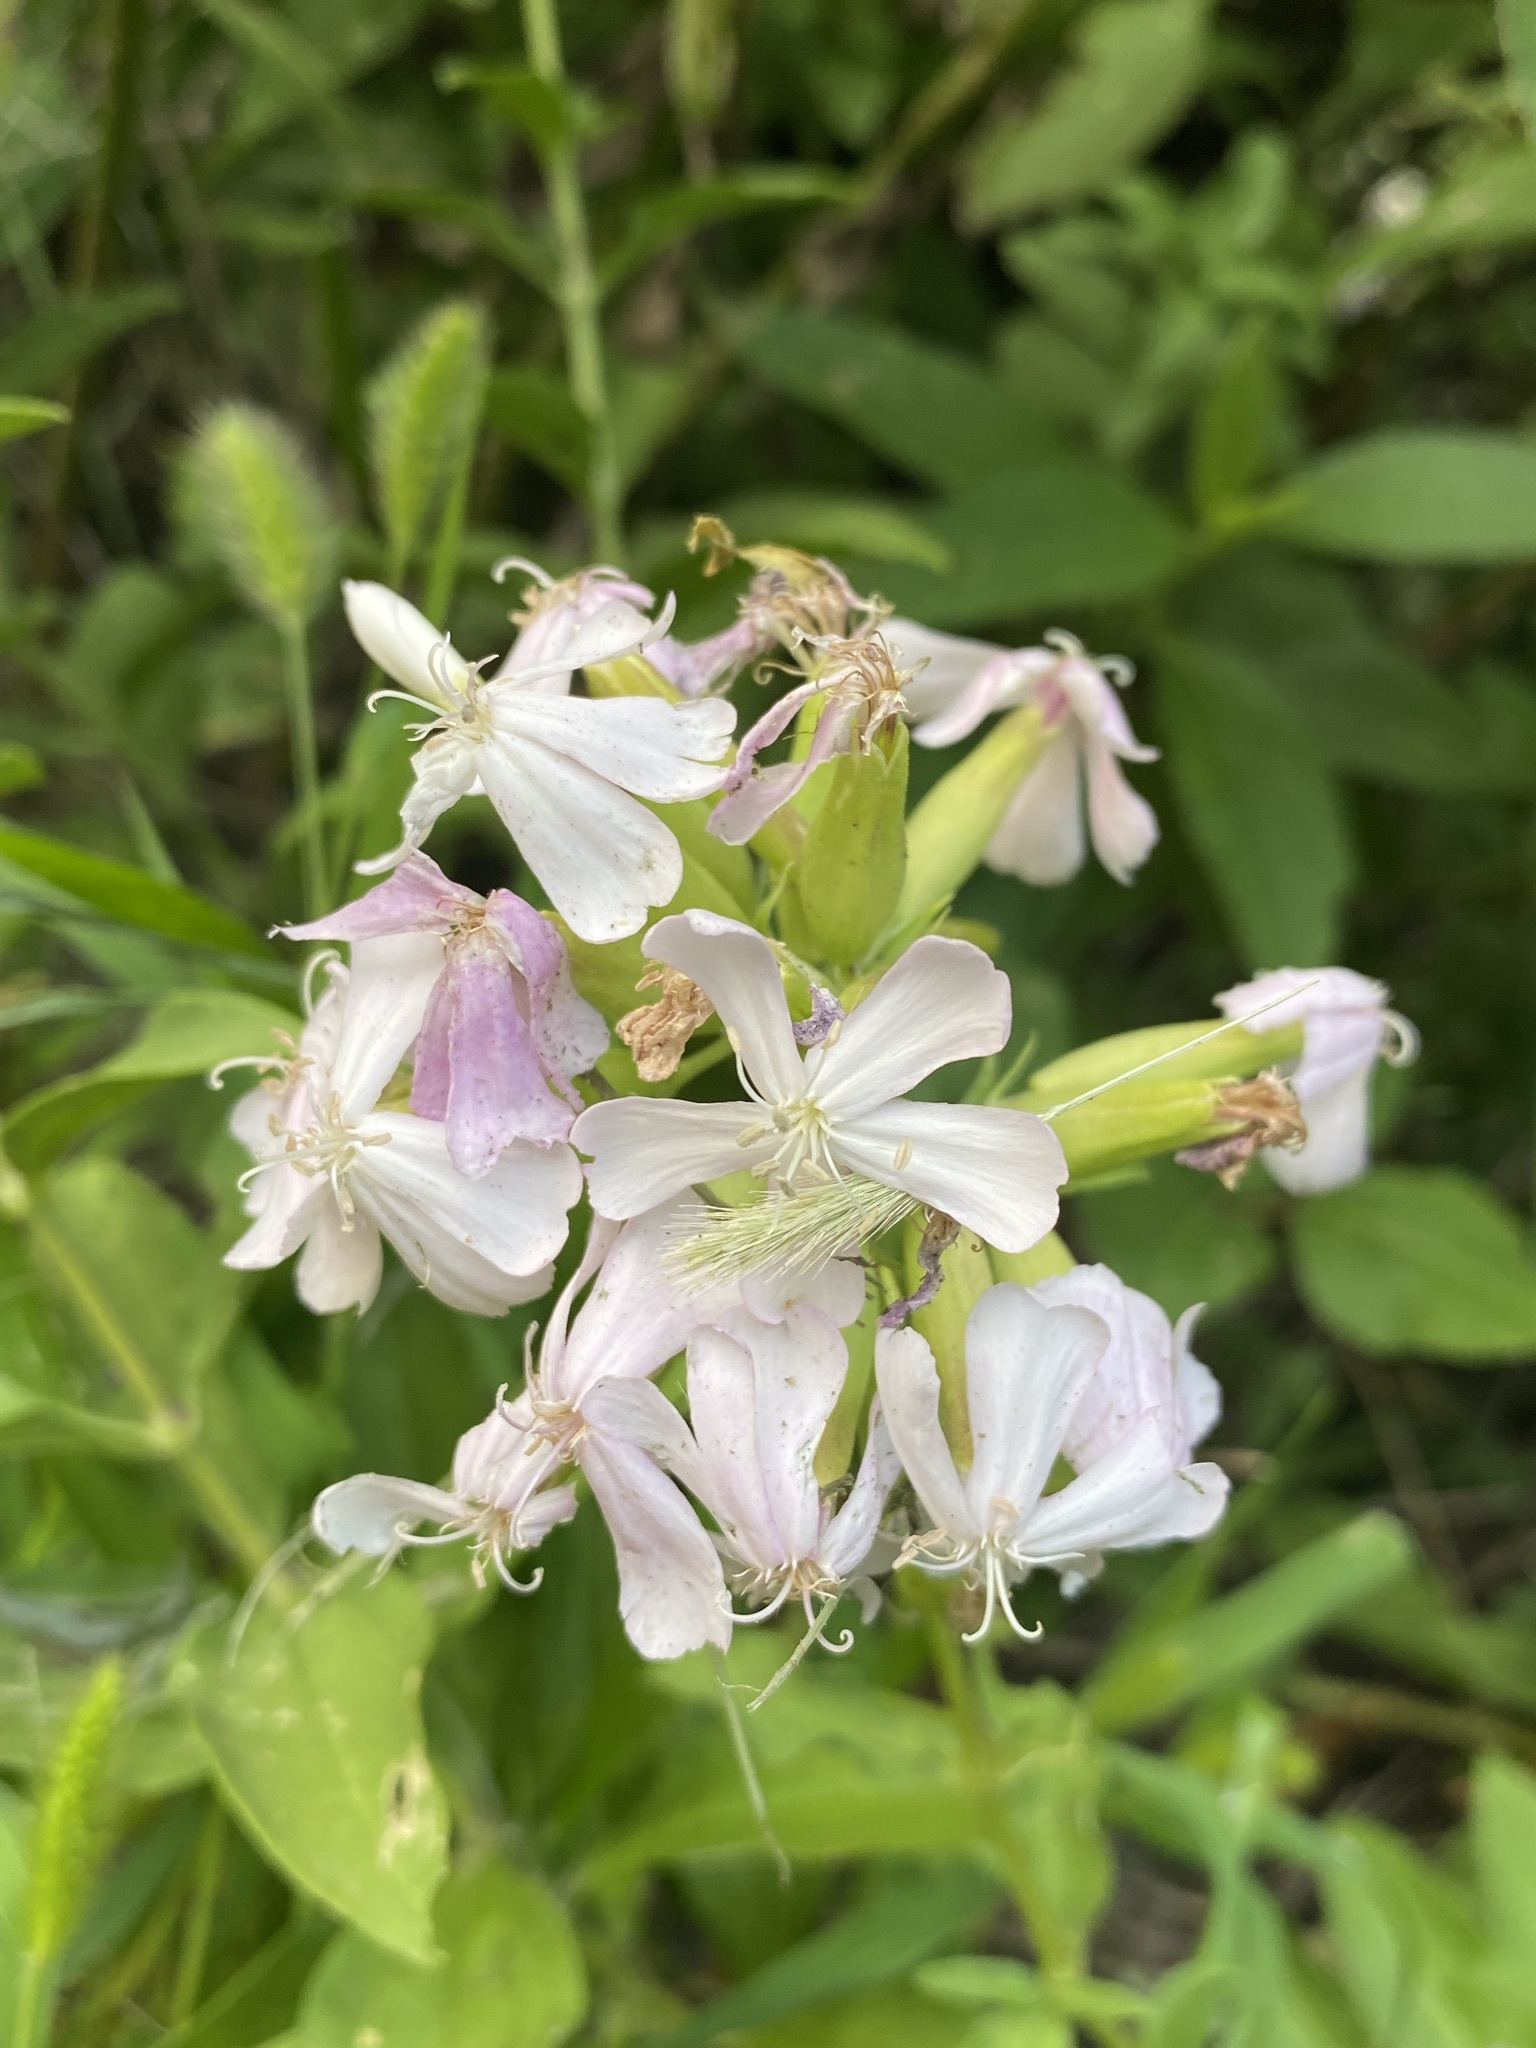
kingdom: Plantae
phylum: Tracheophyta
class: Magnoliopsida
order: Caryophyllales
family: Caryophyllaceae
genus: Saponaria
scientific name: Saponaria officinalis
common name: Soapwort
